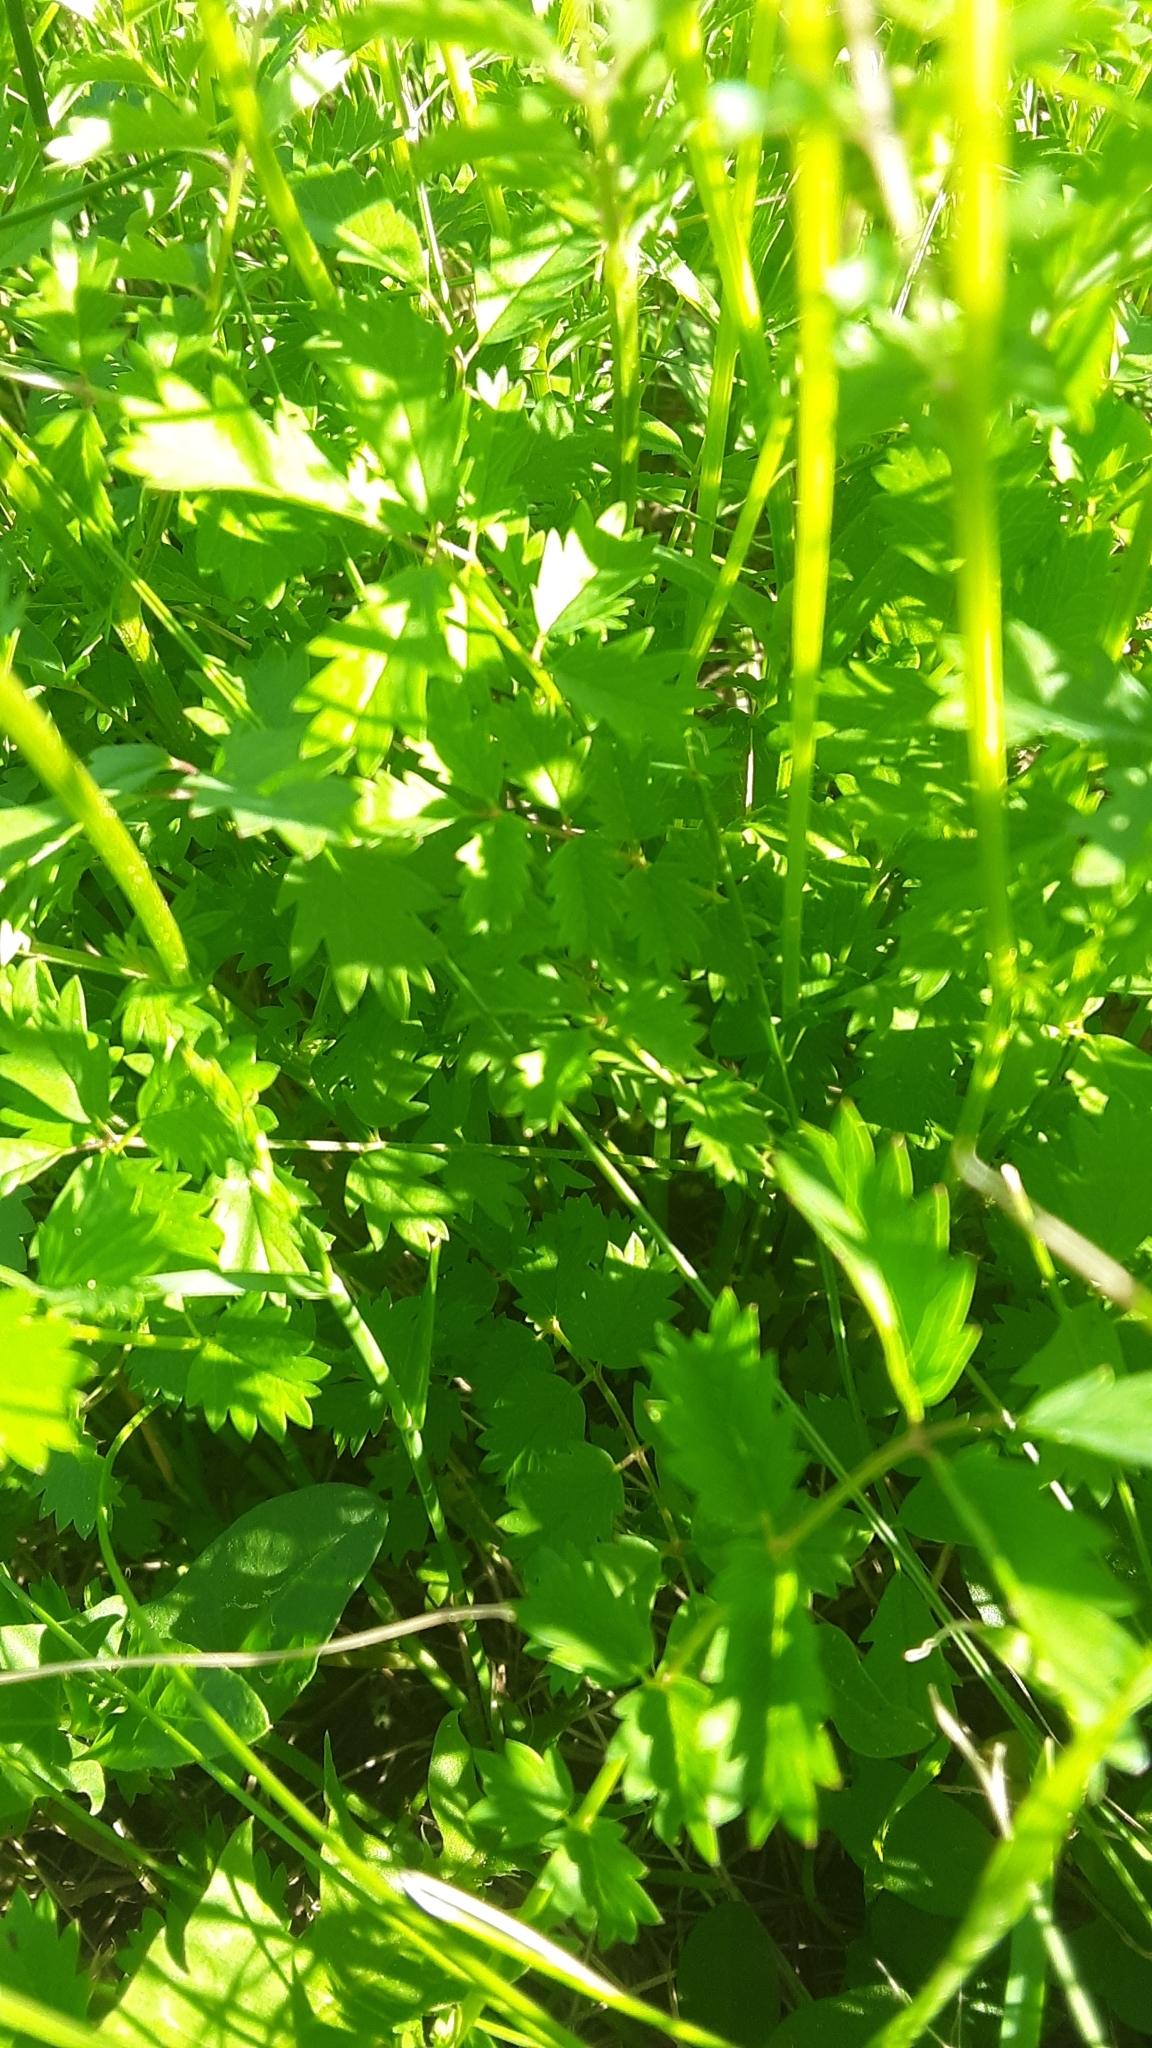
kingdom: Plantae
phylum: Tracheophyta
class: Magnoliopsida
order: Rosales
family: Rosaceae
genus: Poterium
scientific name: Poterium sanguisorba
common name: Salad burnet
